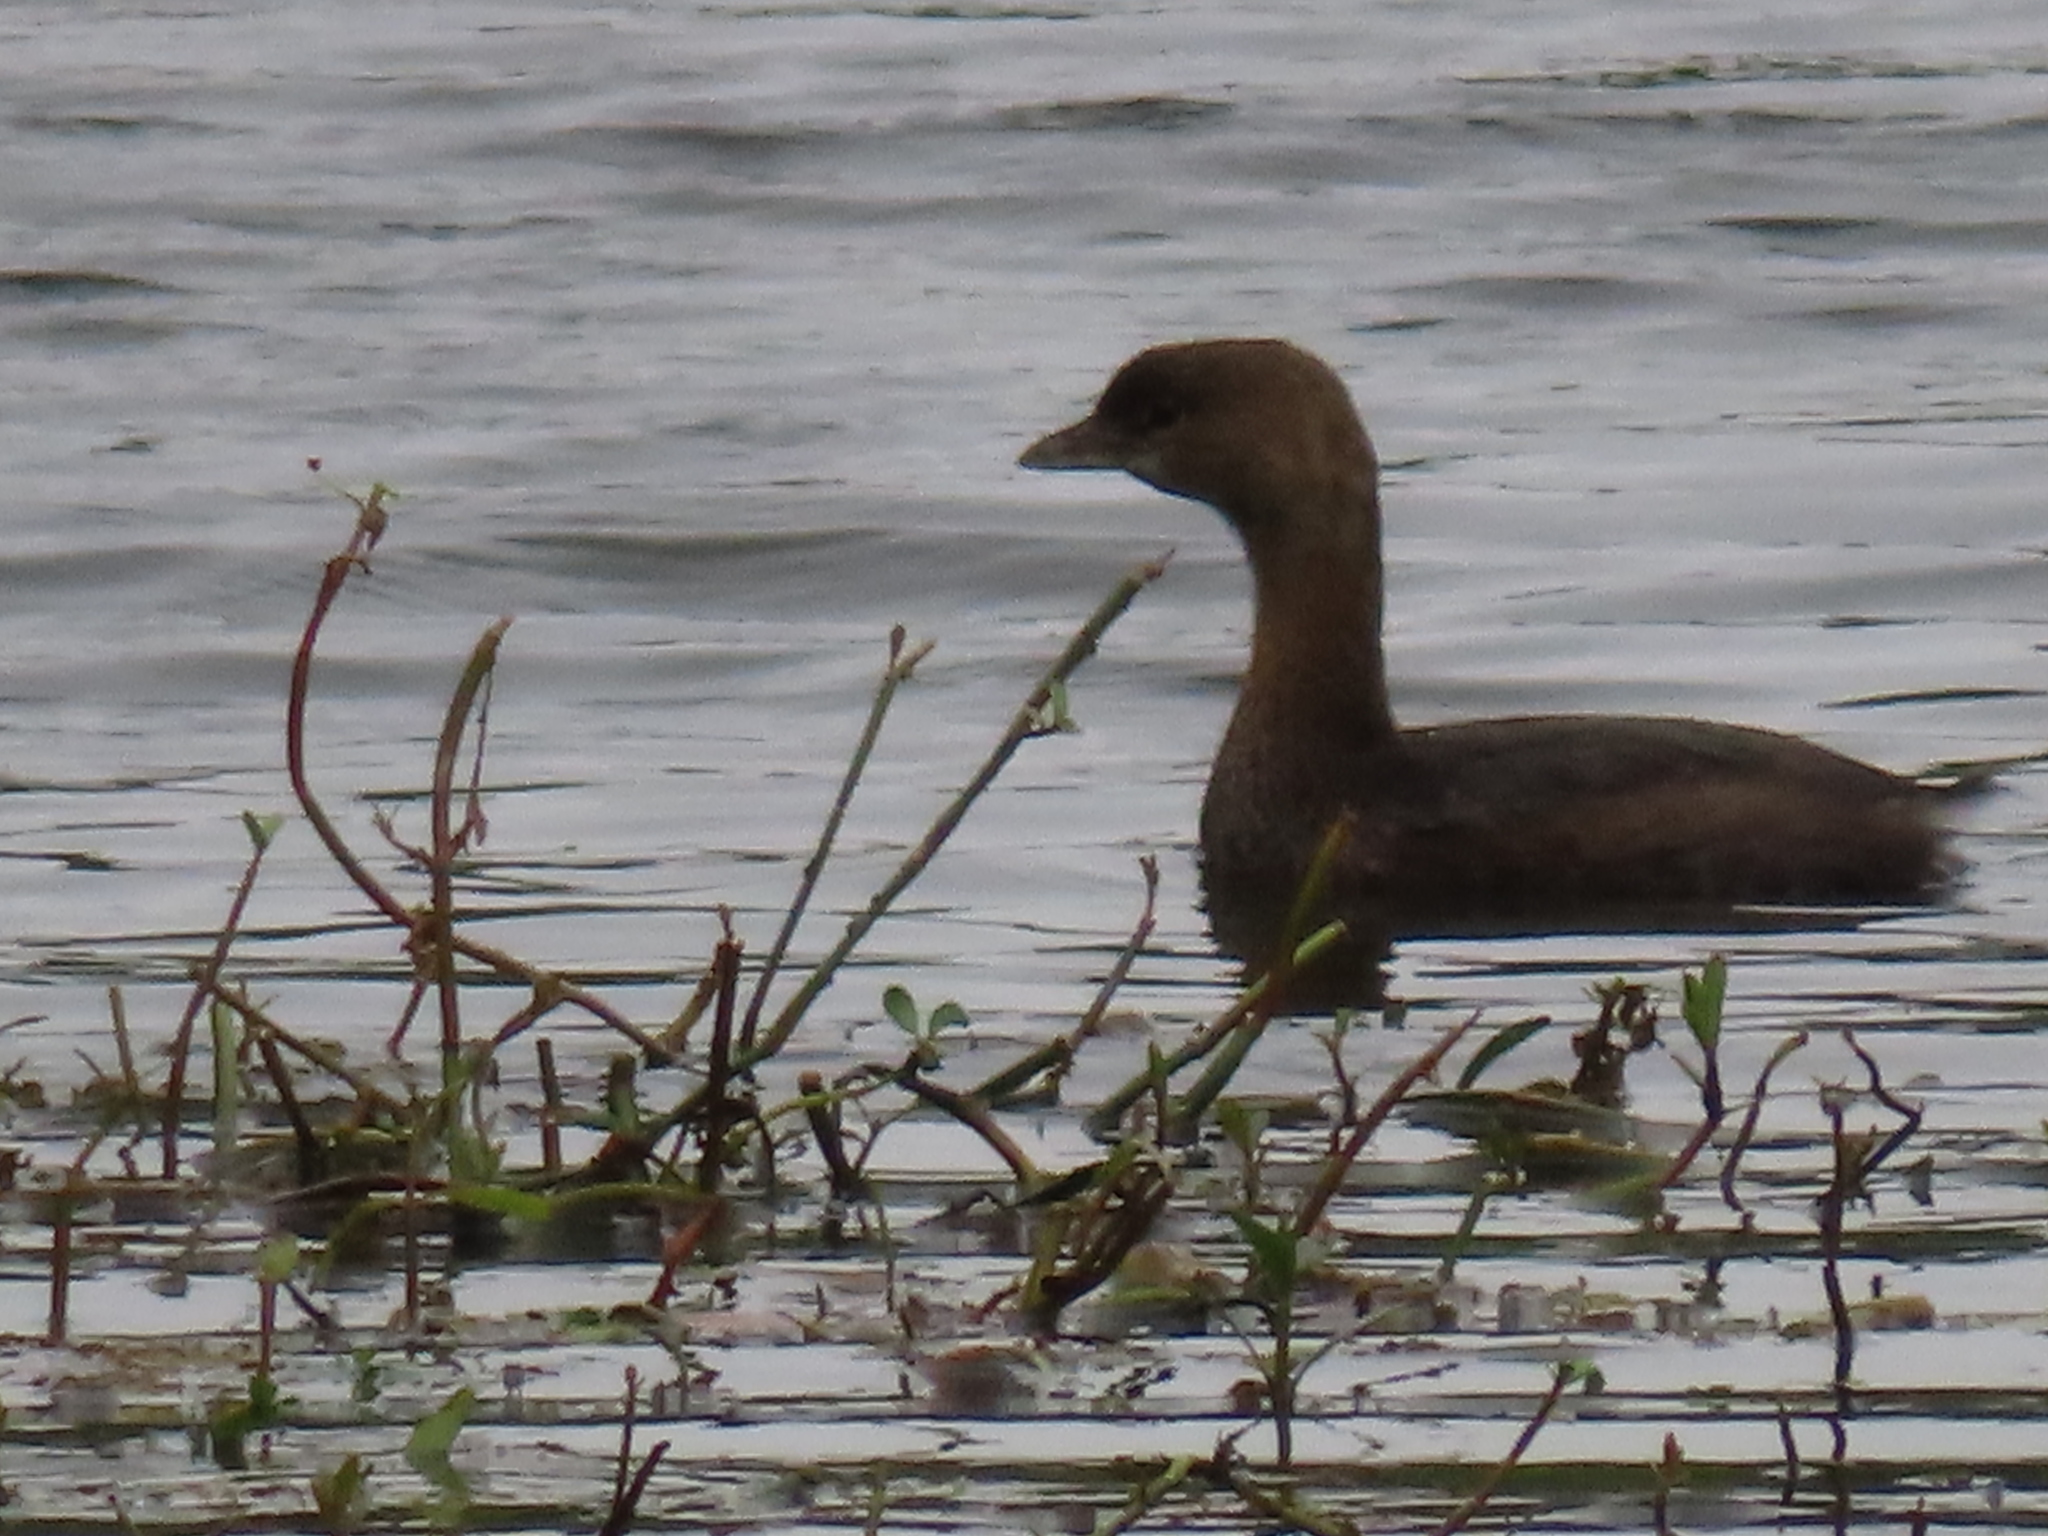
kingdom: Animalia
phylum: Chordata
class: Aves
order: Podicipediformes
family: Podicipedidae
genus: Podilymbus
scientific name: Podilymbus podiceps
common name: Pied-billed grebe
